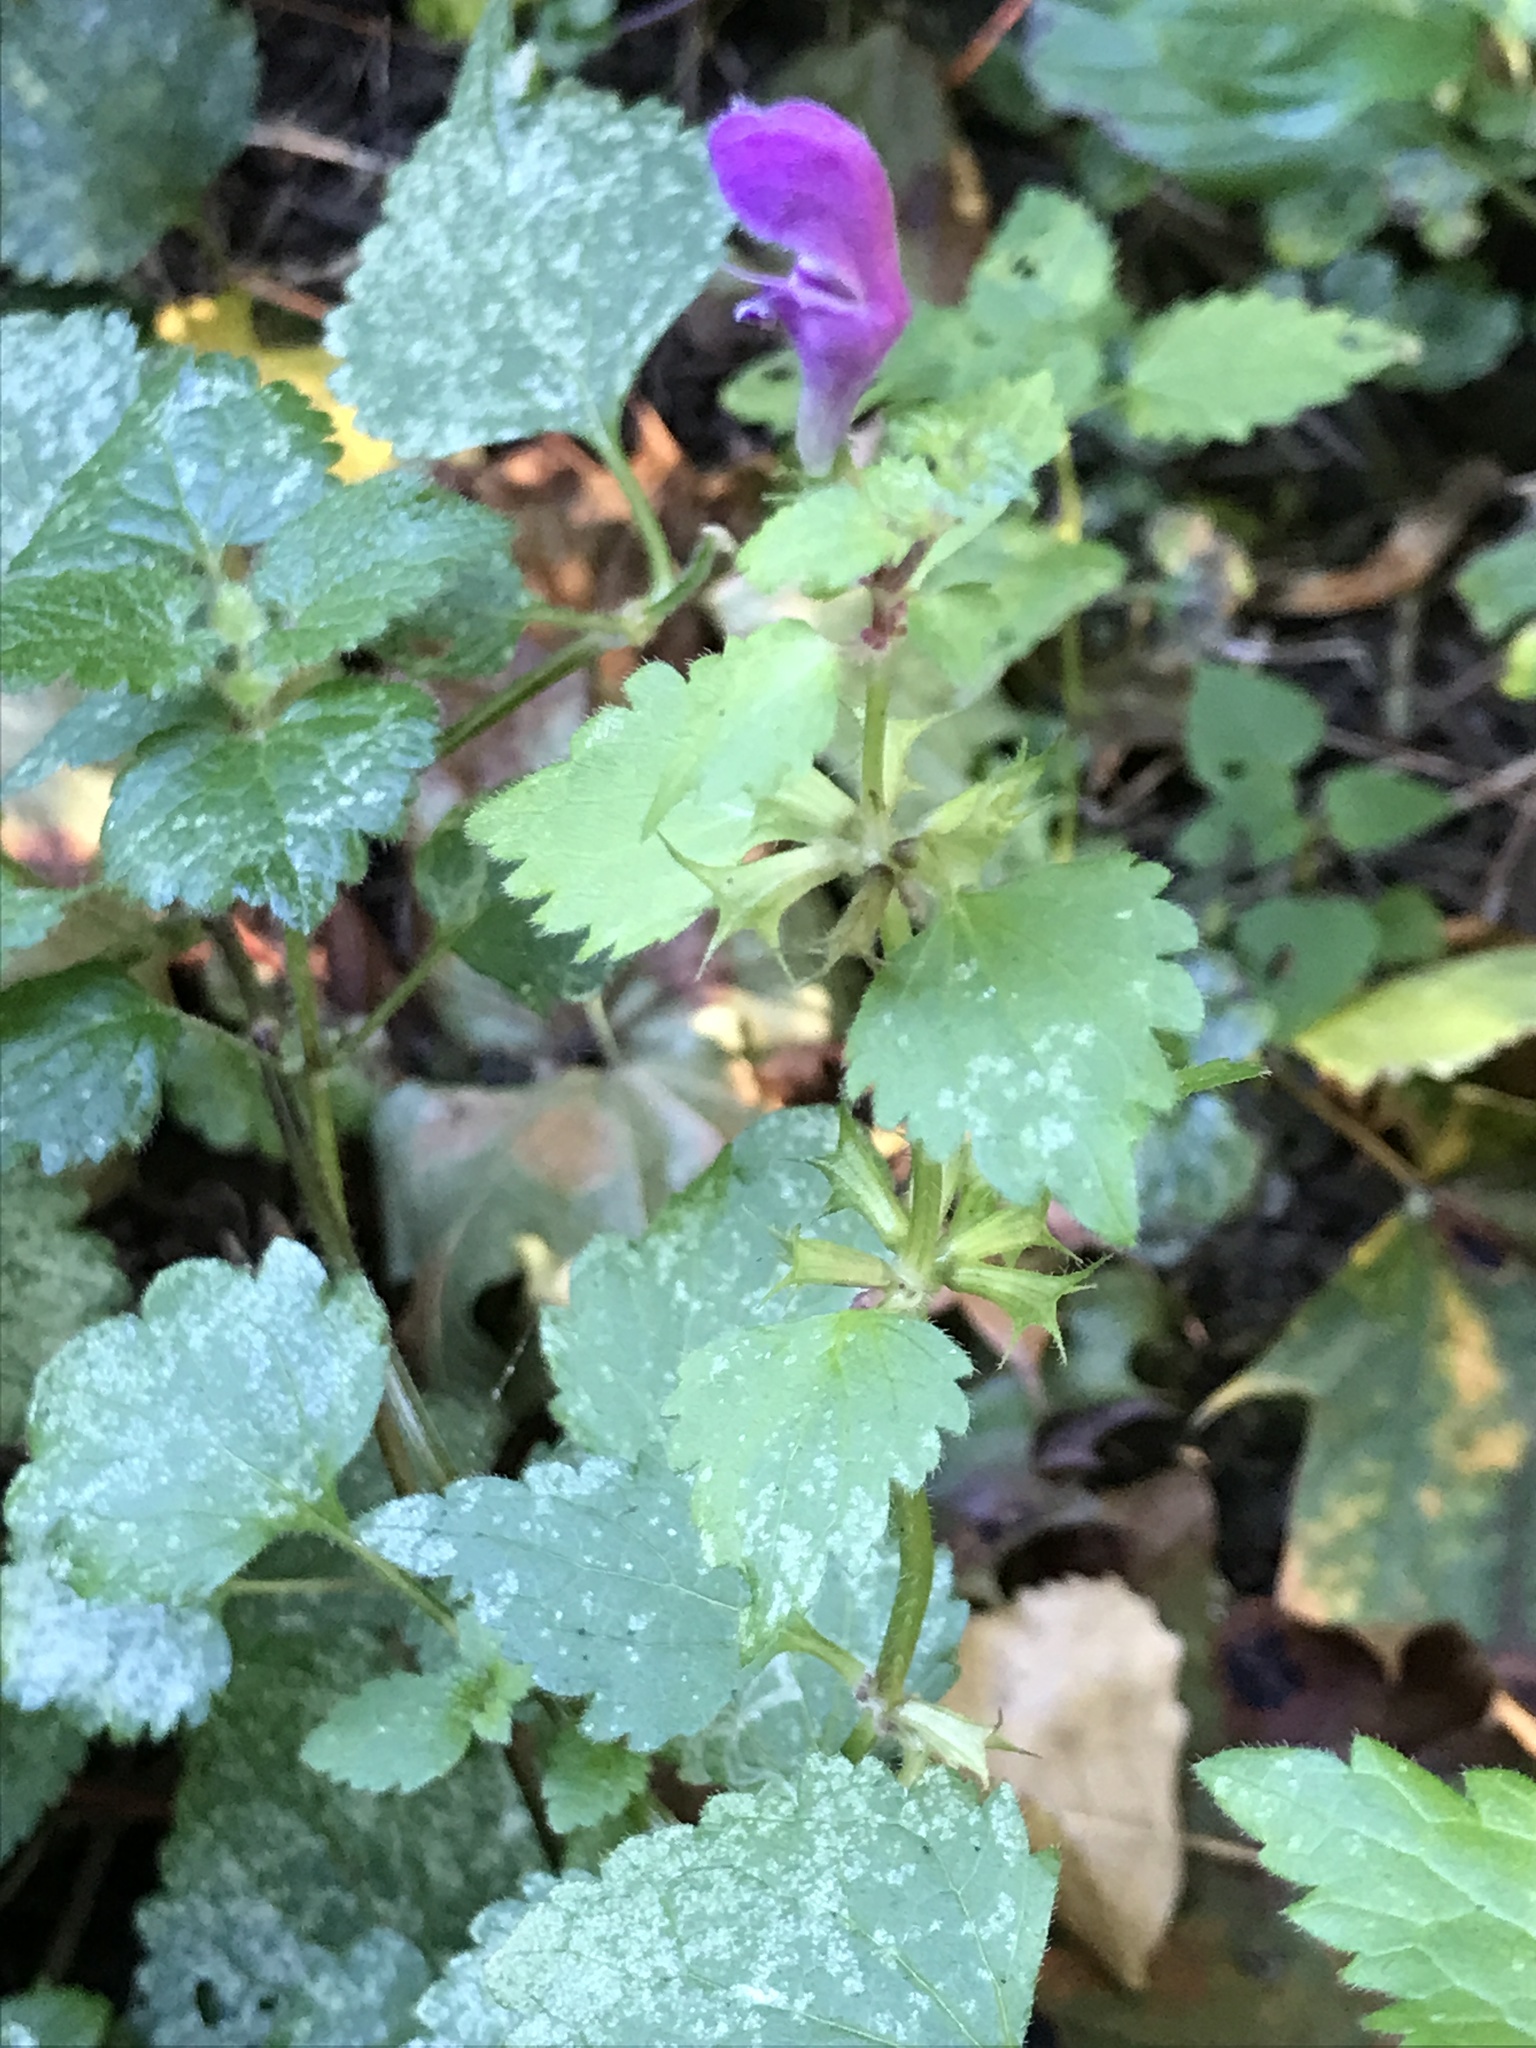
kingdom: Plantae
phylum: Tracheophyta
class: Magnoliopsida
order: Lamiales
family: Lamiaceae
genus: Lamium
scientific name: Lamium maculatum
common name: Spotted dead-nettle
